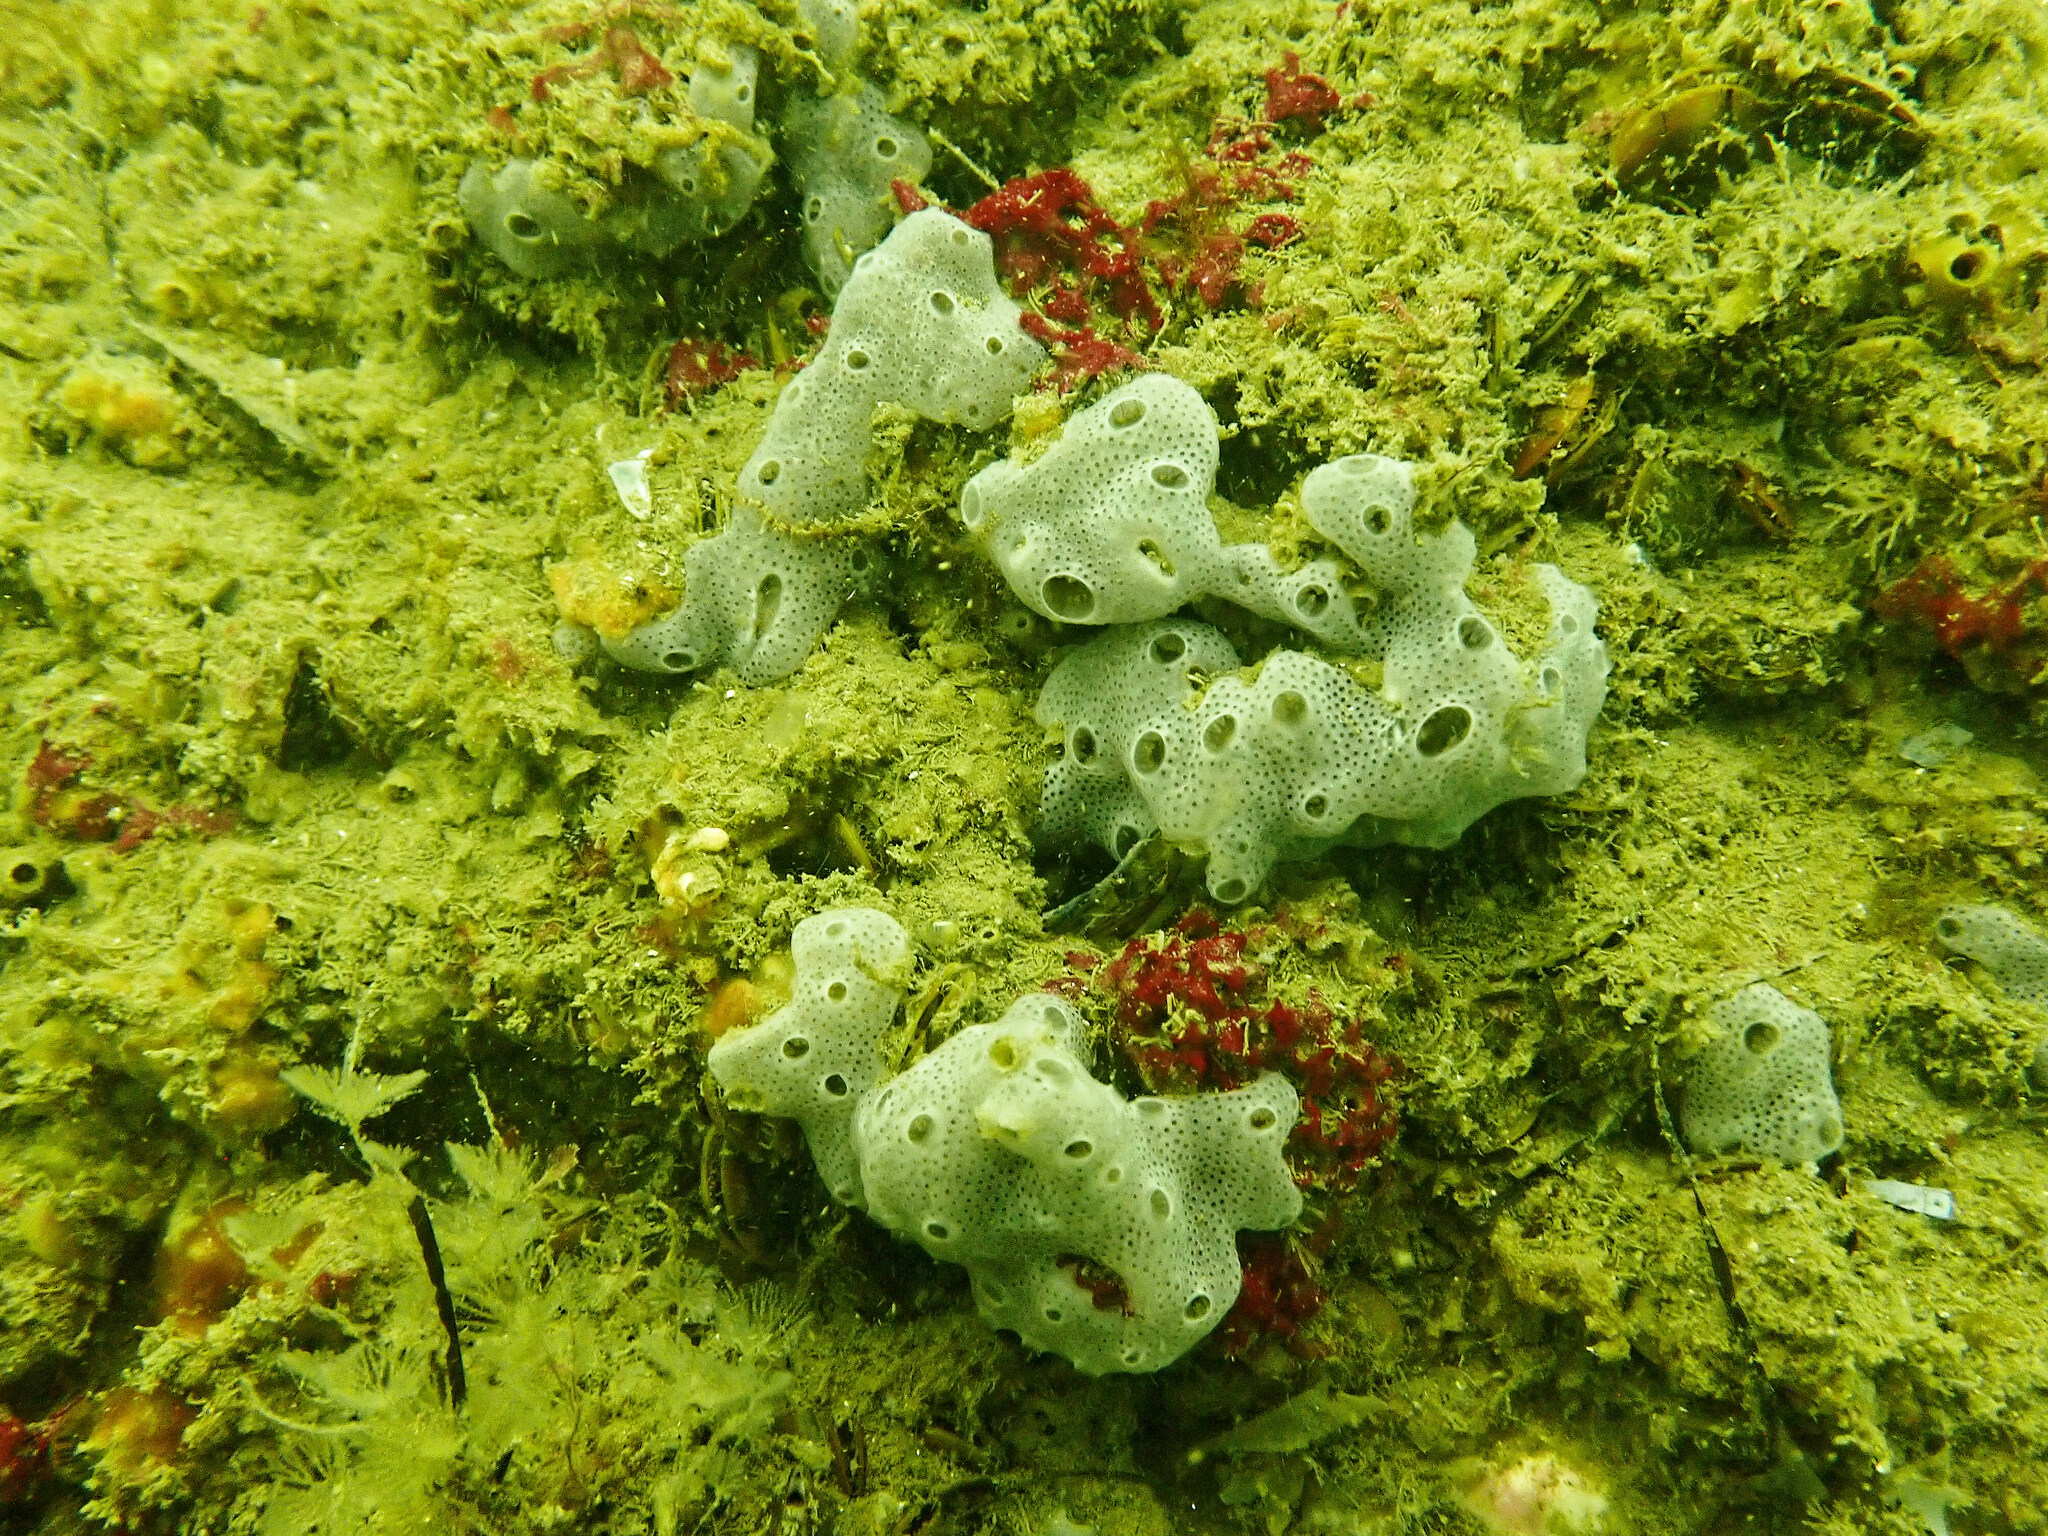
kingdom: Animalia
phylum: Chordata
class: Ascidiacea
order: Aplousobranchia
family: Didemnidae
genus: Lissoclinum
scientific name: Lissoclinum perforatum
